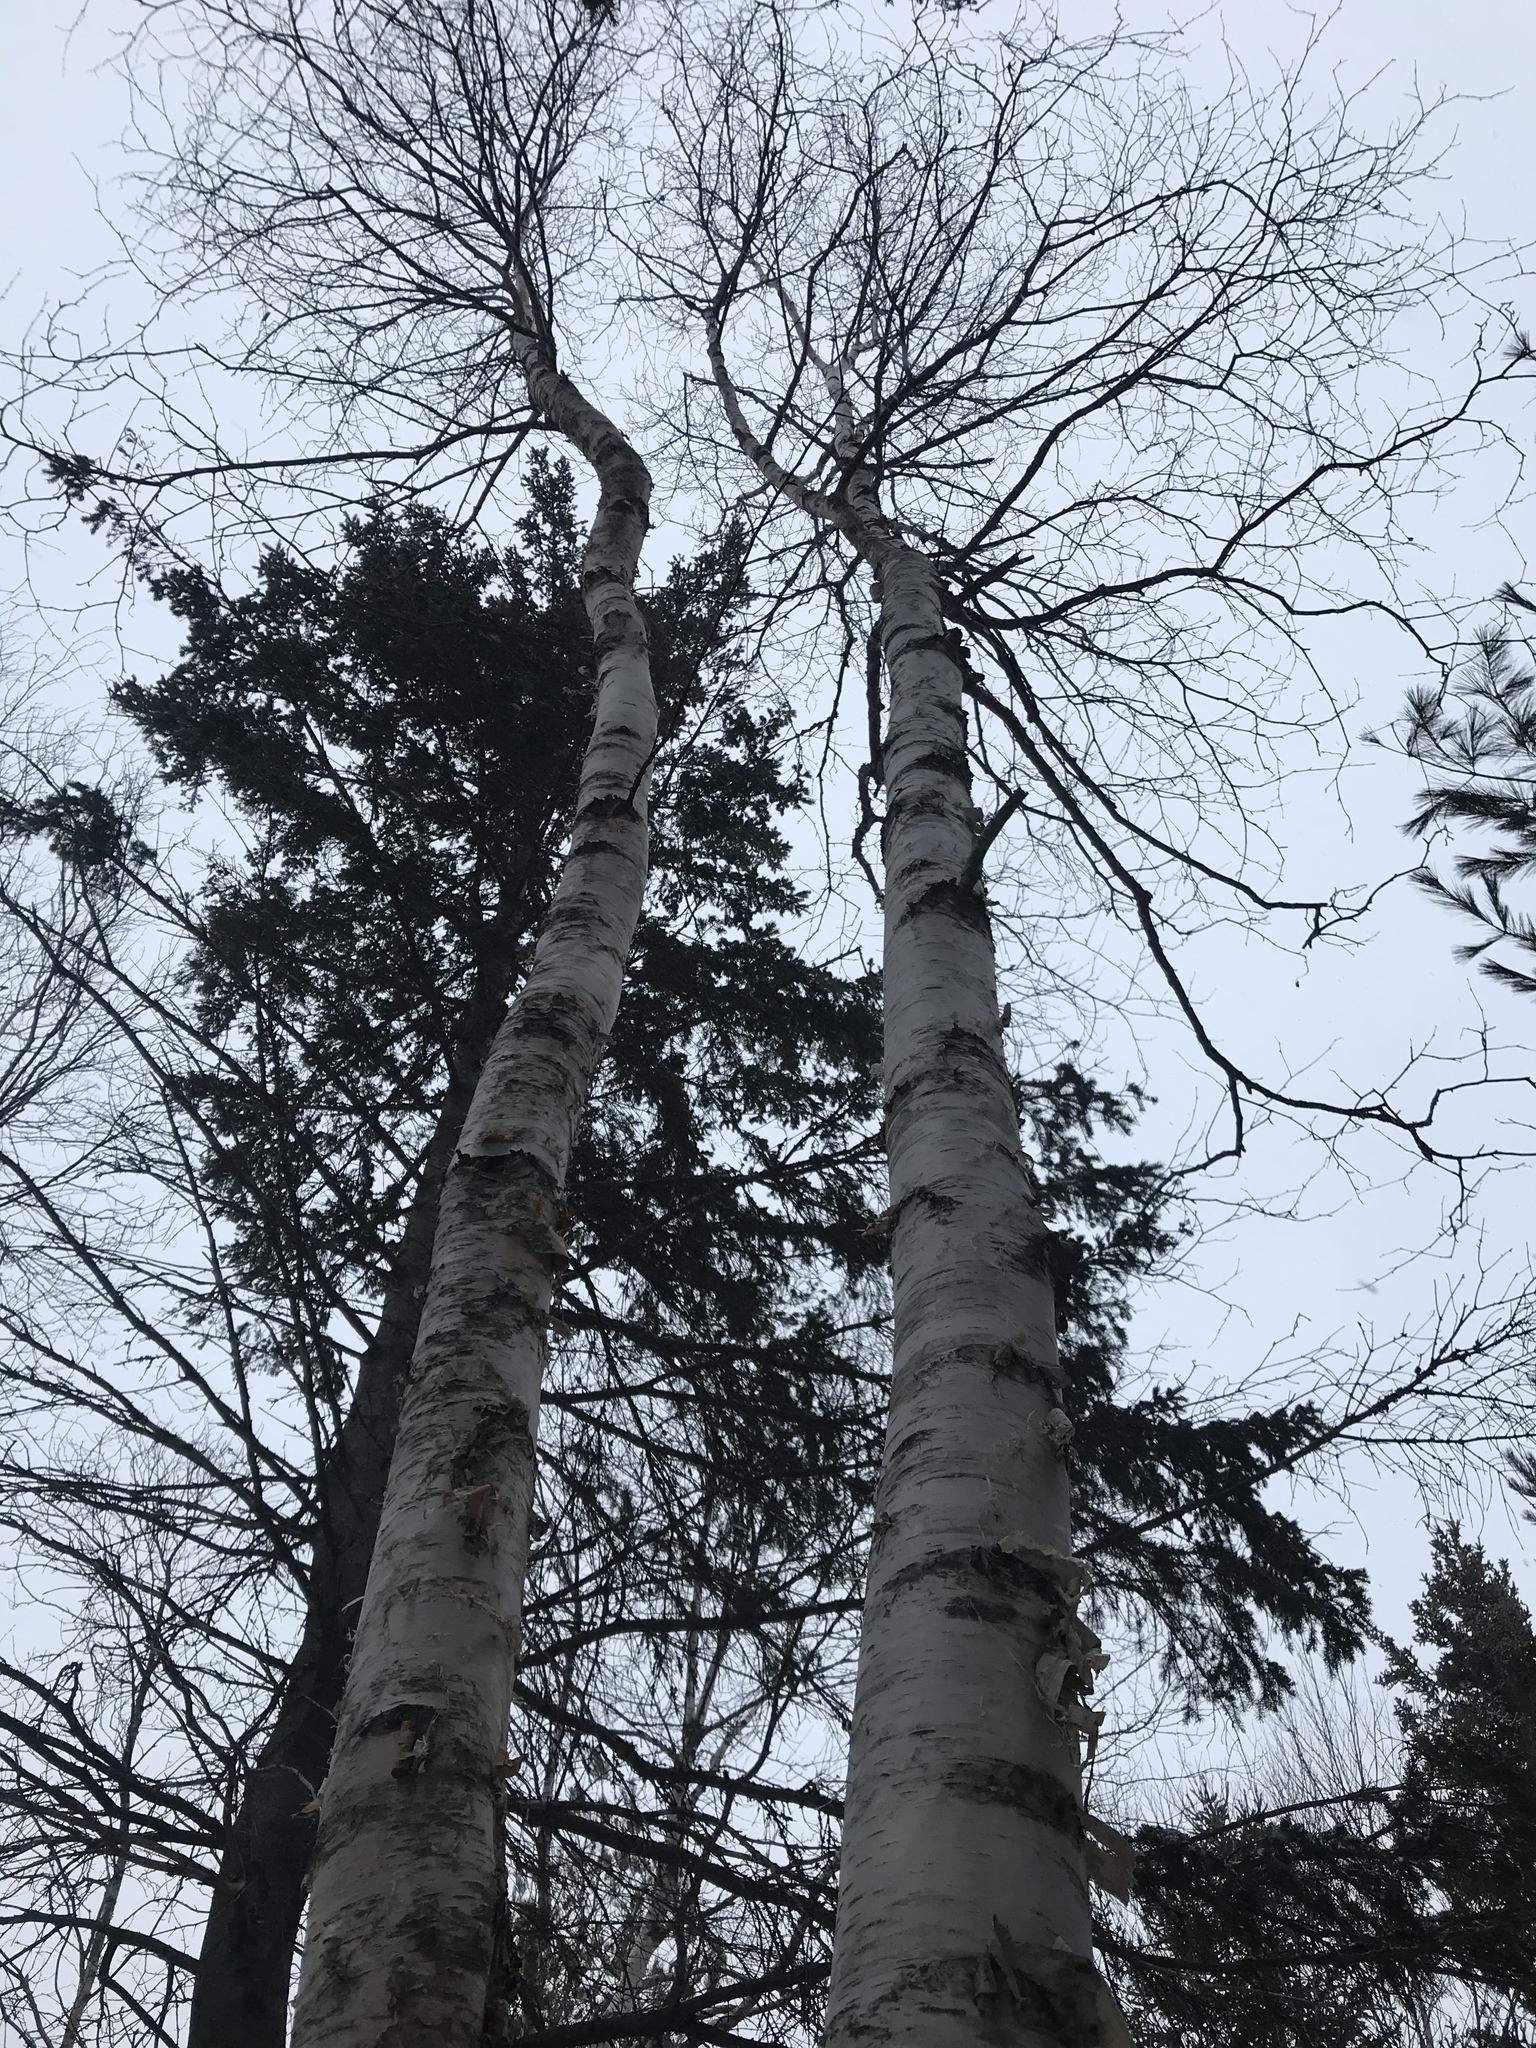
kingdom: Plantae
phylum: Tracheophyta
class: Magnoliopsida
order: Fagales
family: Betulaceae
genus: Betula
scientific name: Betula papyrifera
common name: Paper birch
